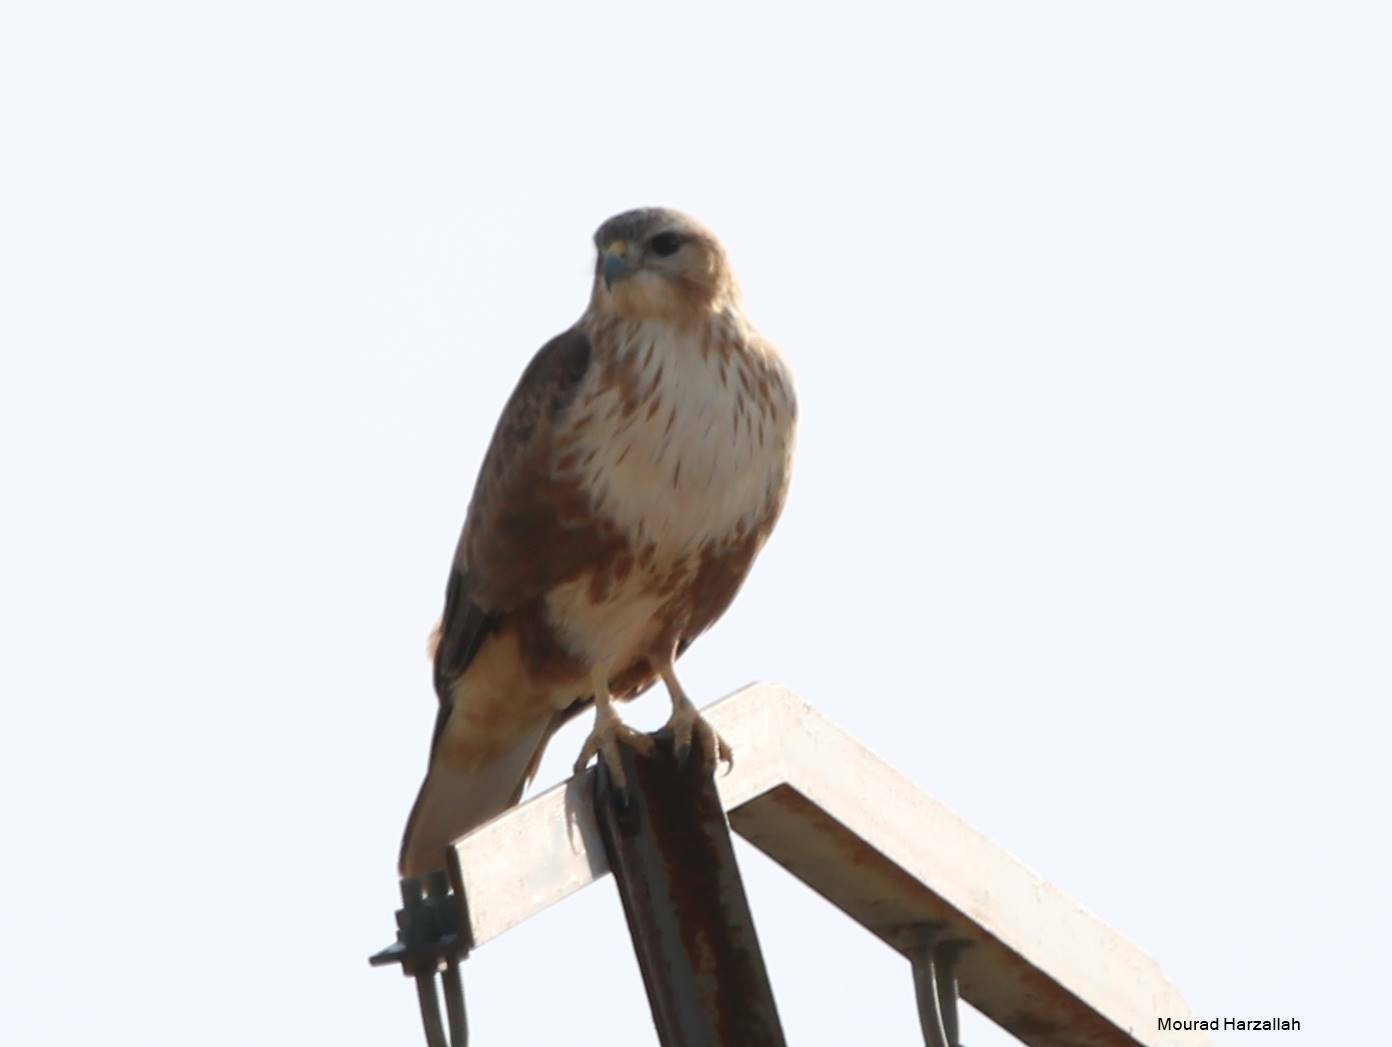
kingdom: Animalia
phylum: Chordata
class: Aves
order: Accipitriformes
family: Accipitridae
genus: Buteo
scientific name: Buteo rufinus
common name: Long-legged buzzard
